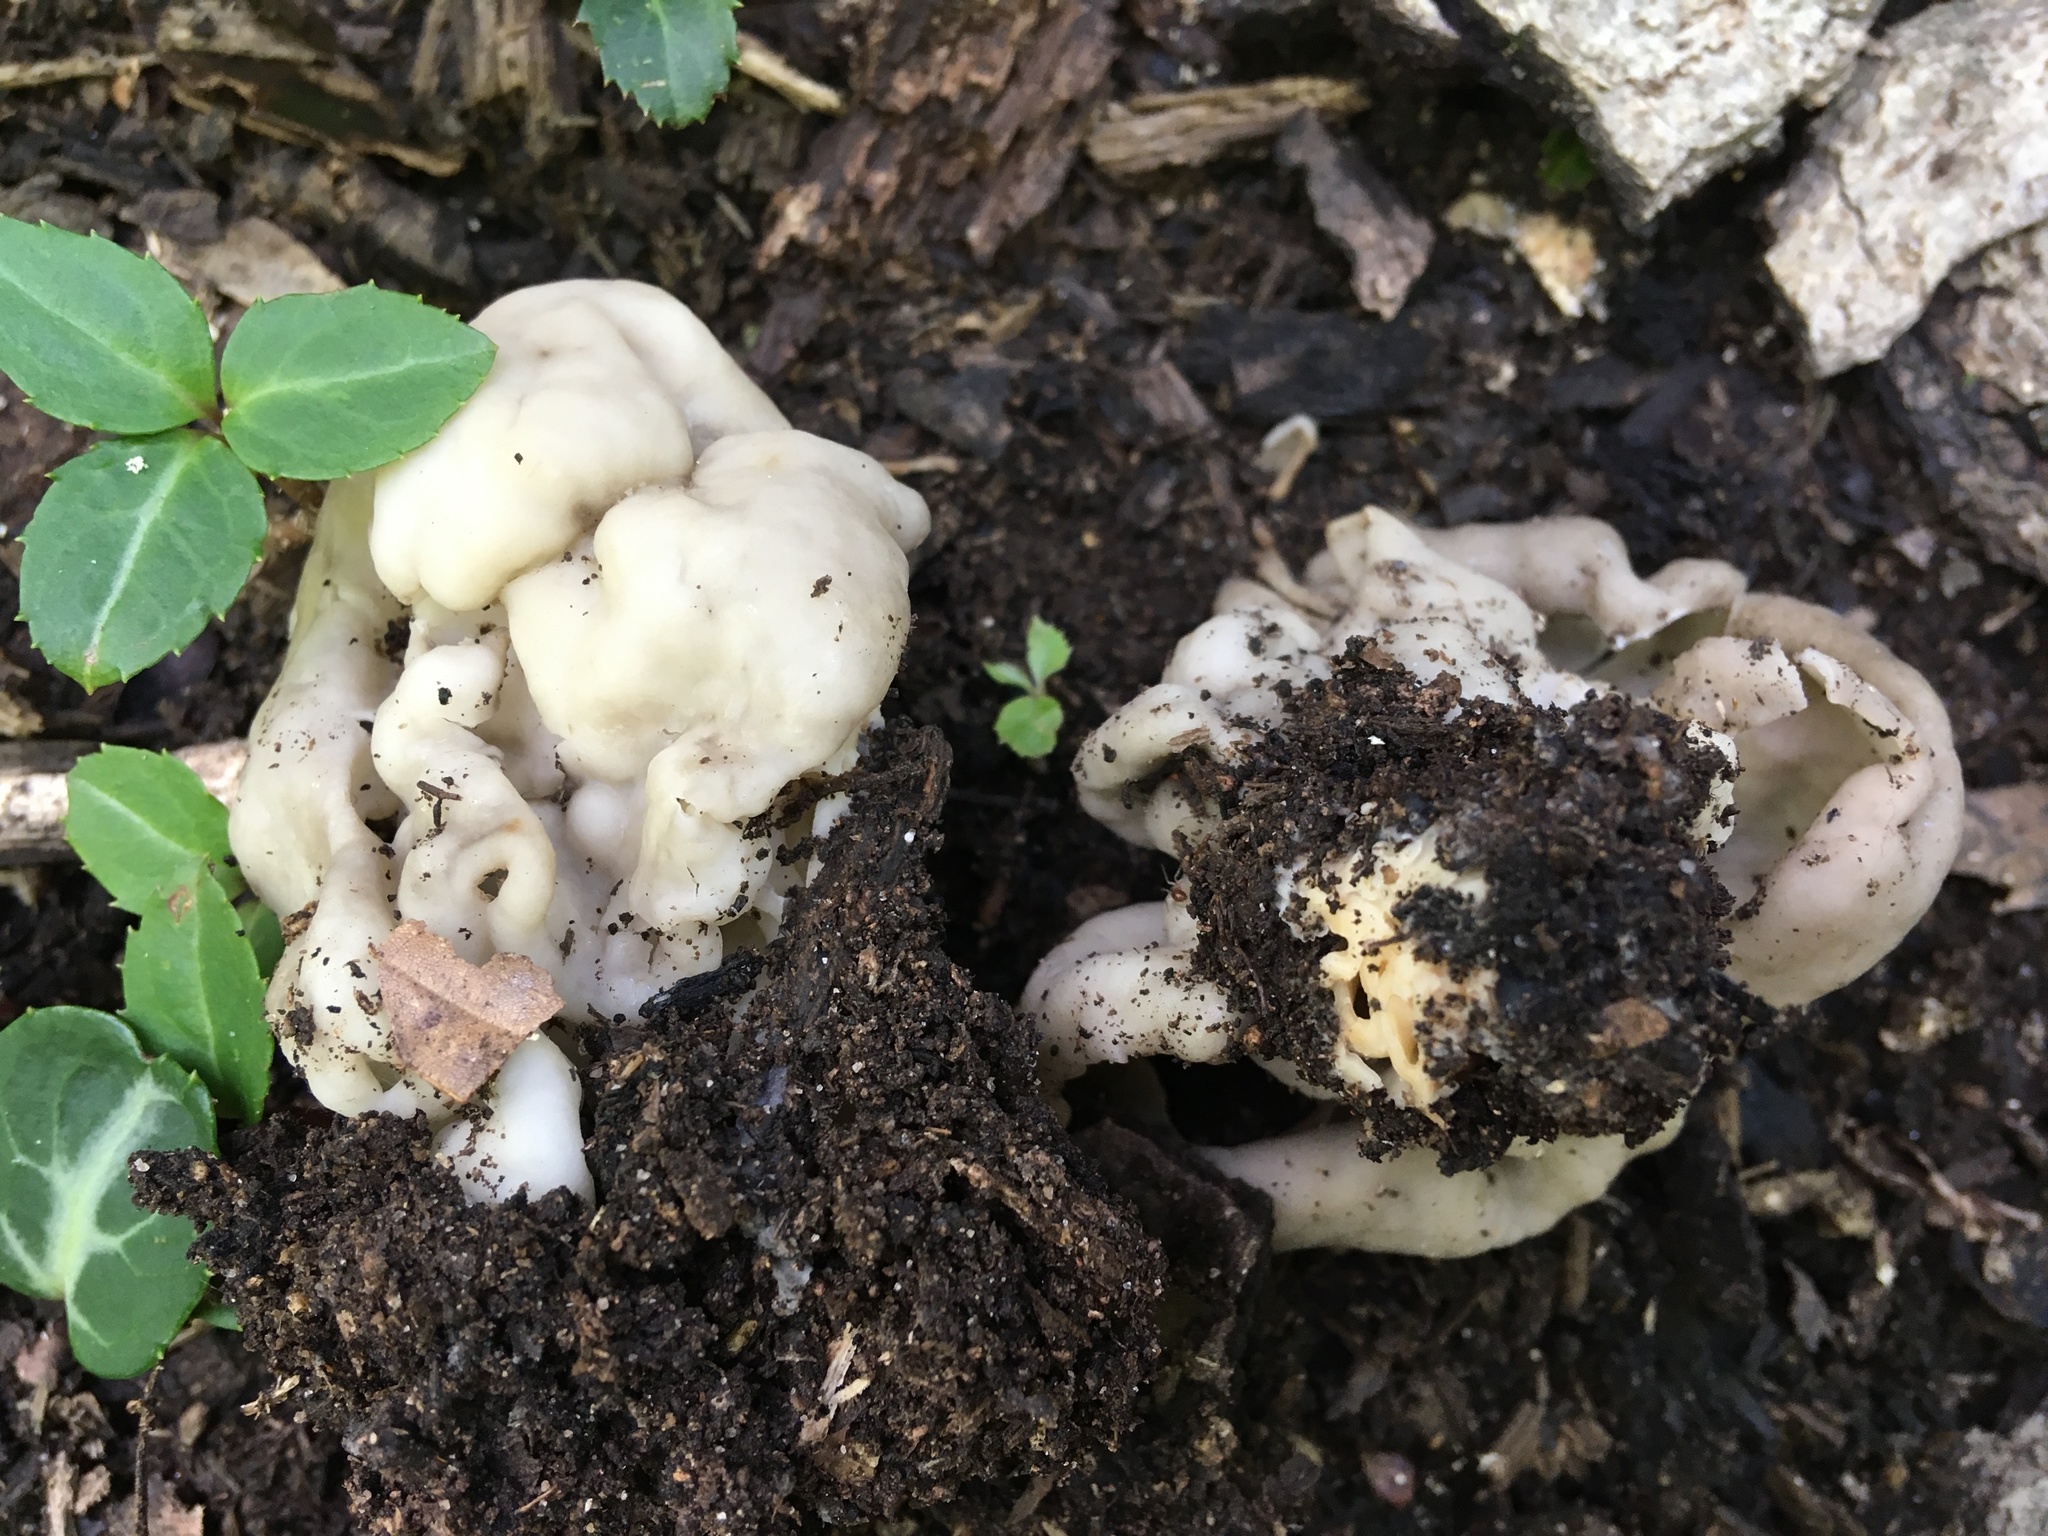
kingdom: Fungi
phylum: Ascomycota
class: Pezizomycetes
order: Pezizales
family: Helvellaceae
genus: Helvella
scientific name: Helvella crispa
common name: White saddle
